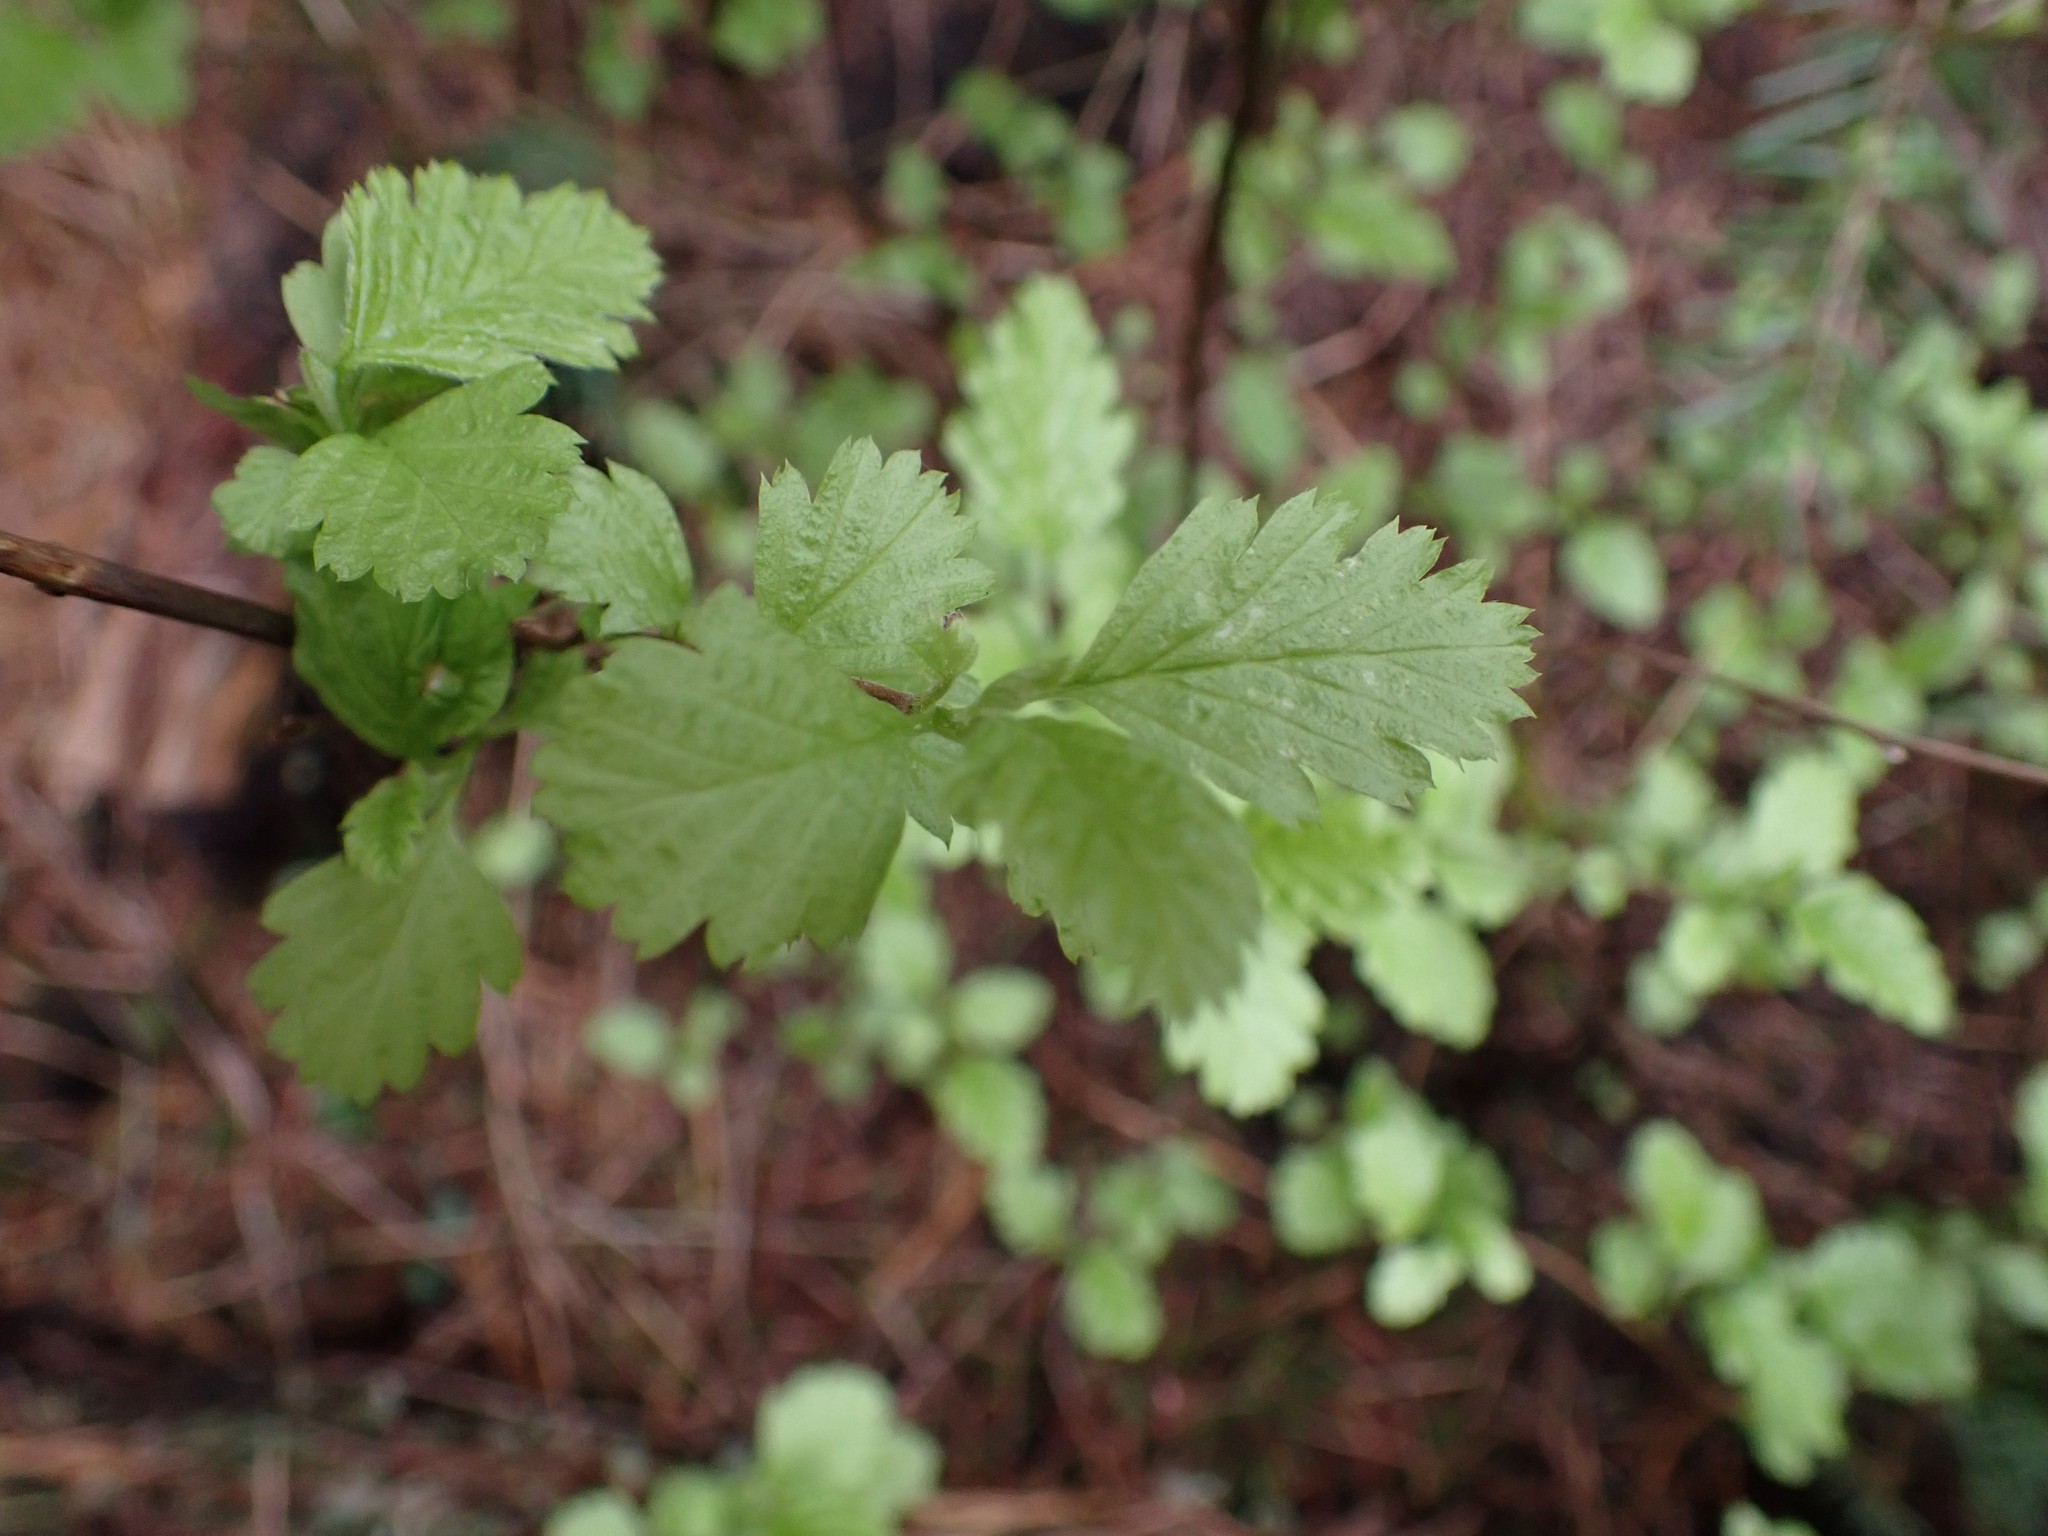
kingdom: Plantae
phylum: Tracheophyta
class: Magnoliopsida
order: Rosales
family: Rosaceae
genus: Holodiscus
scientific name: Holodiscus discolor
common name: Oceanspray
